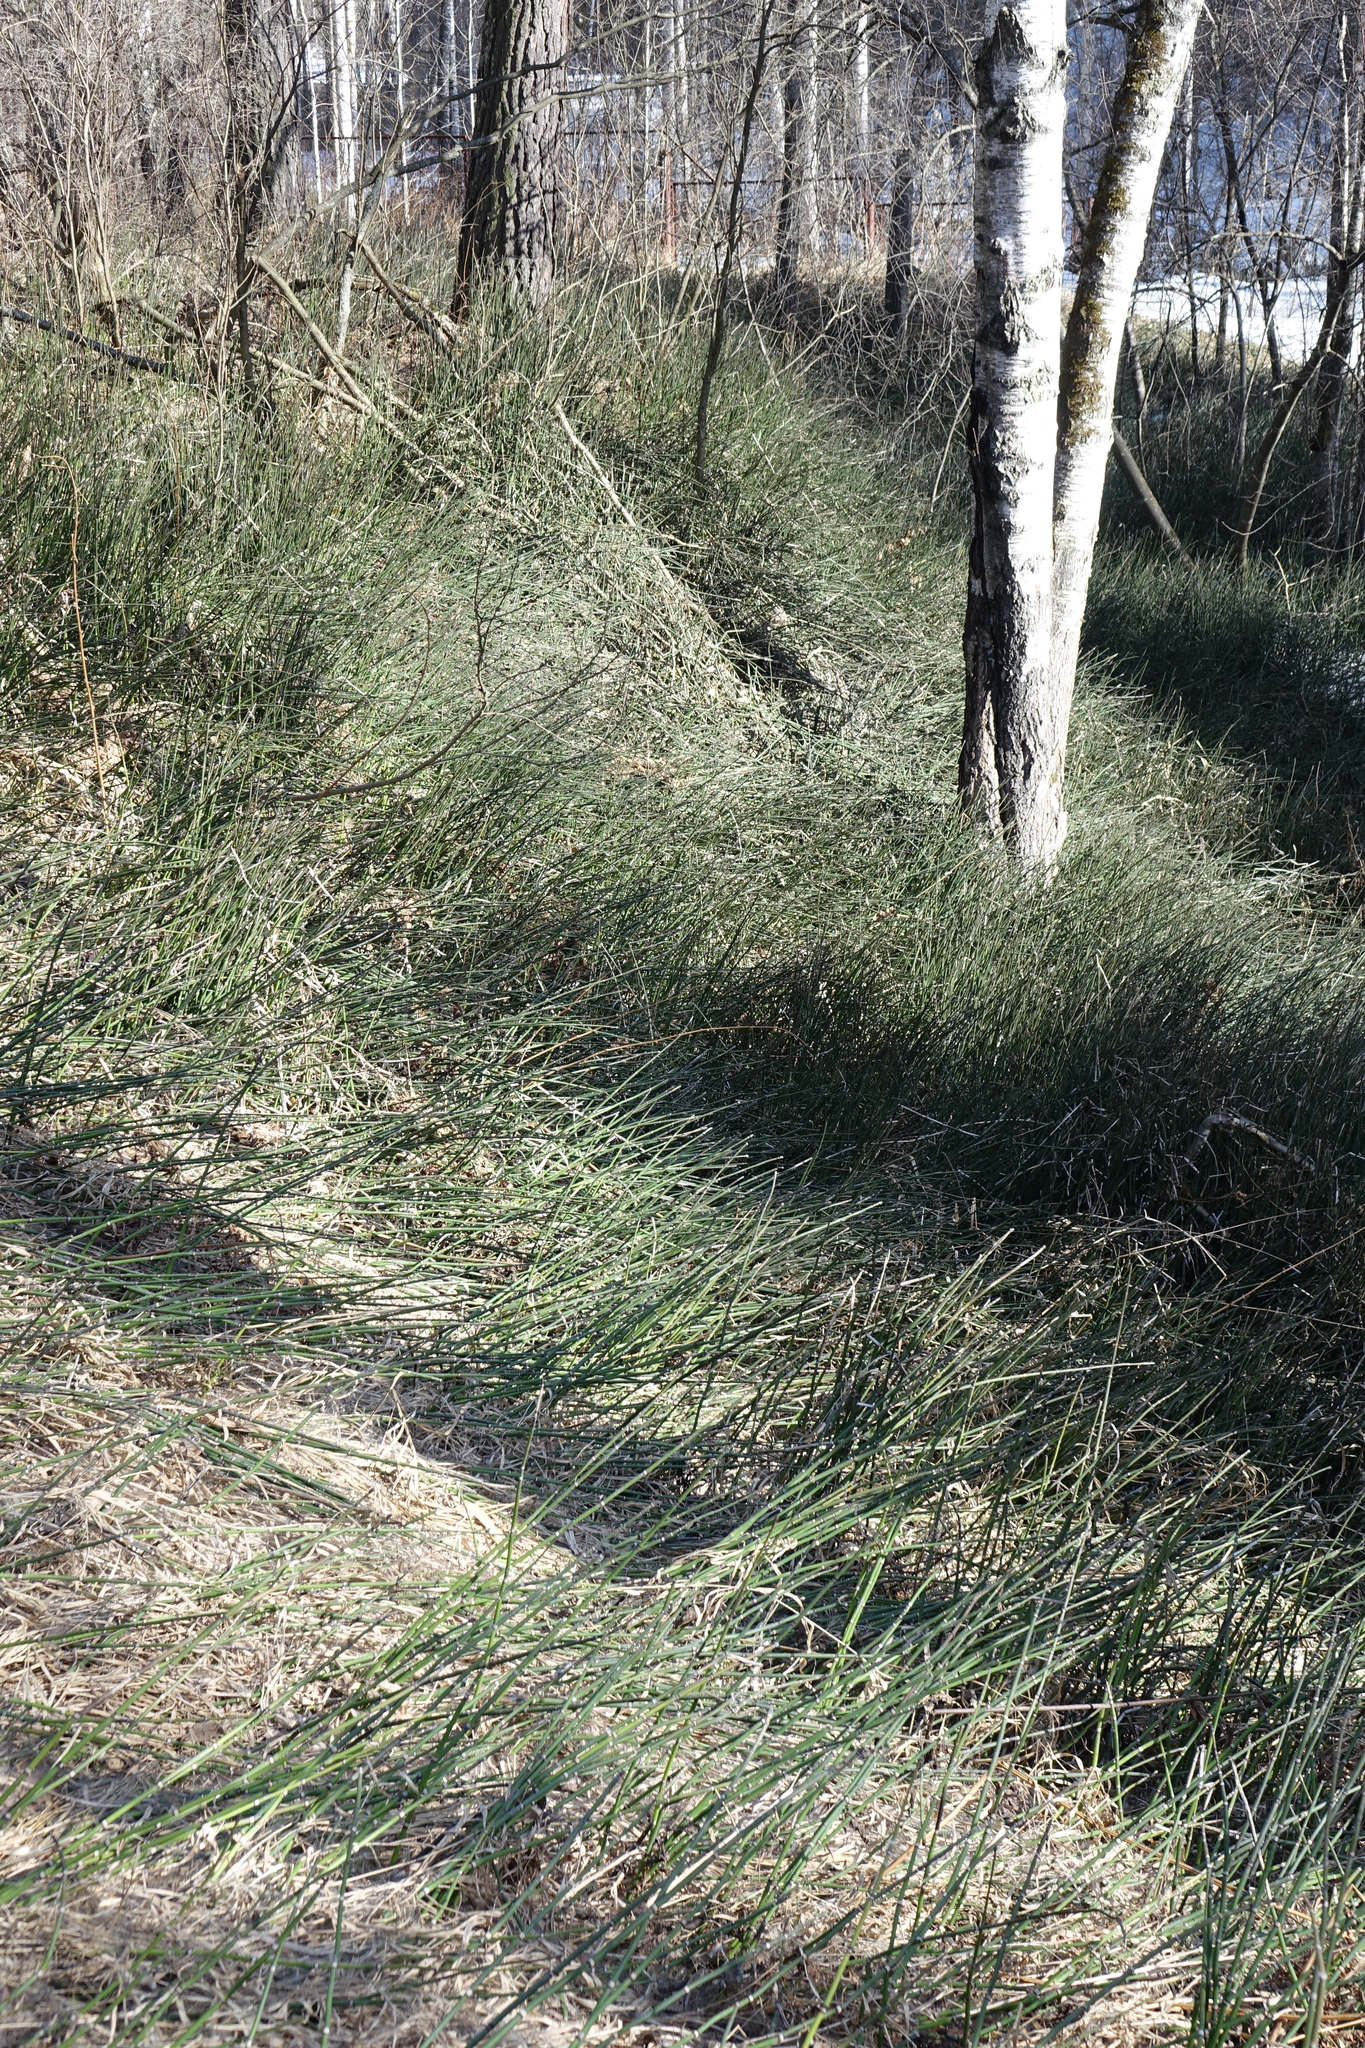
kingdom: Plantae
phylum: Tracheophyta
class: Polypodiopsida
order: Equisetales
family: Equisetaceae
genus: Equisetum
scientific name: Equisetum hyemale
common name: Rough horsetail
